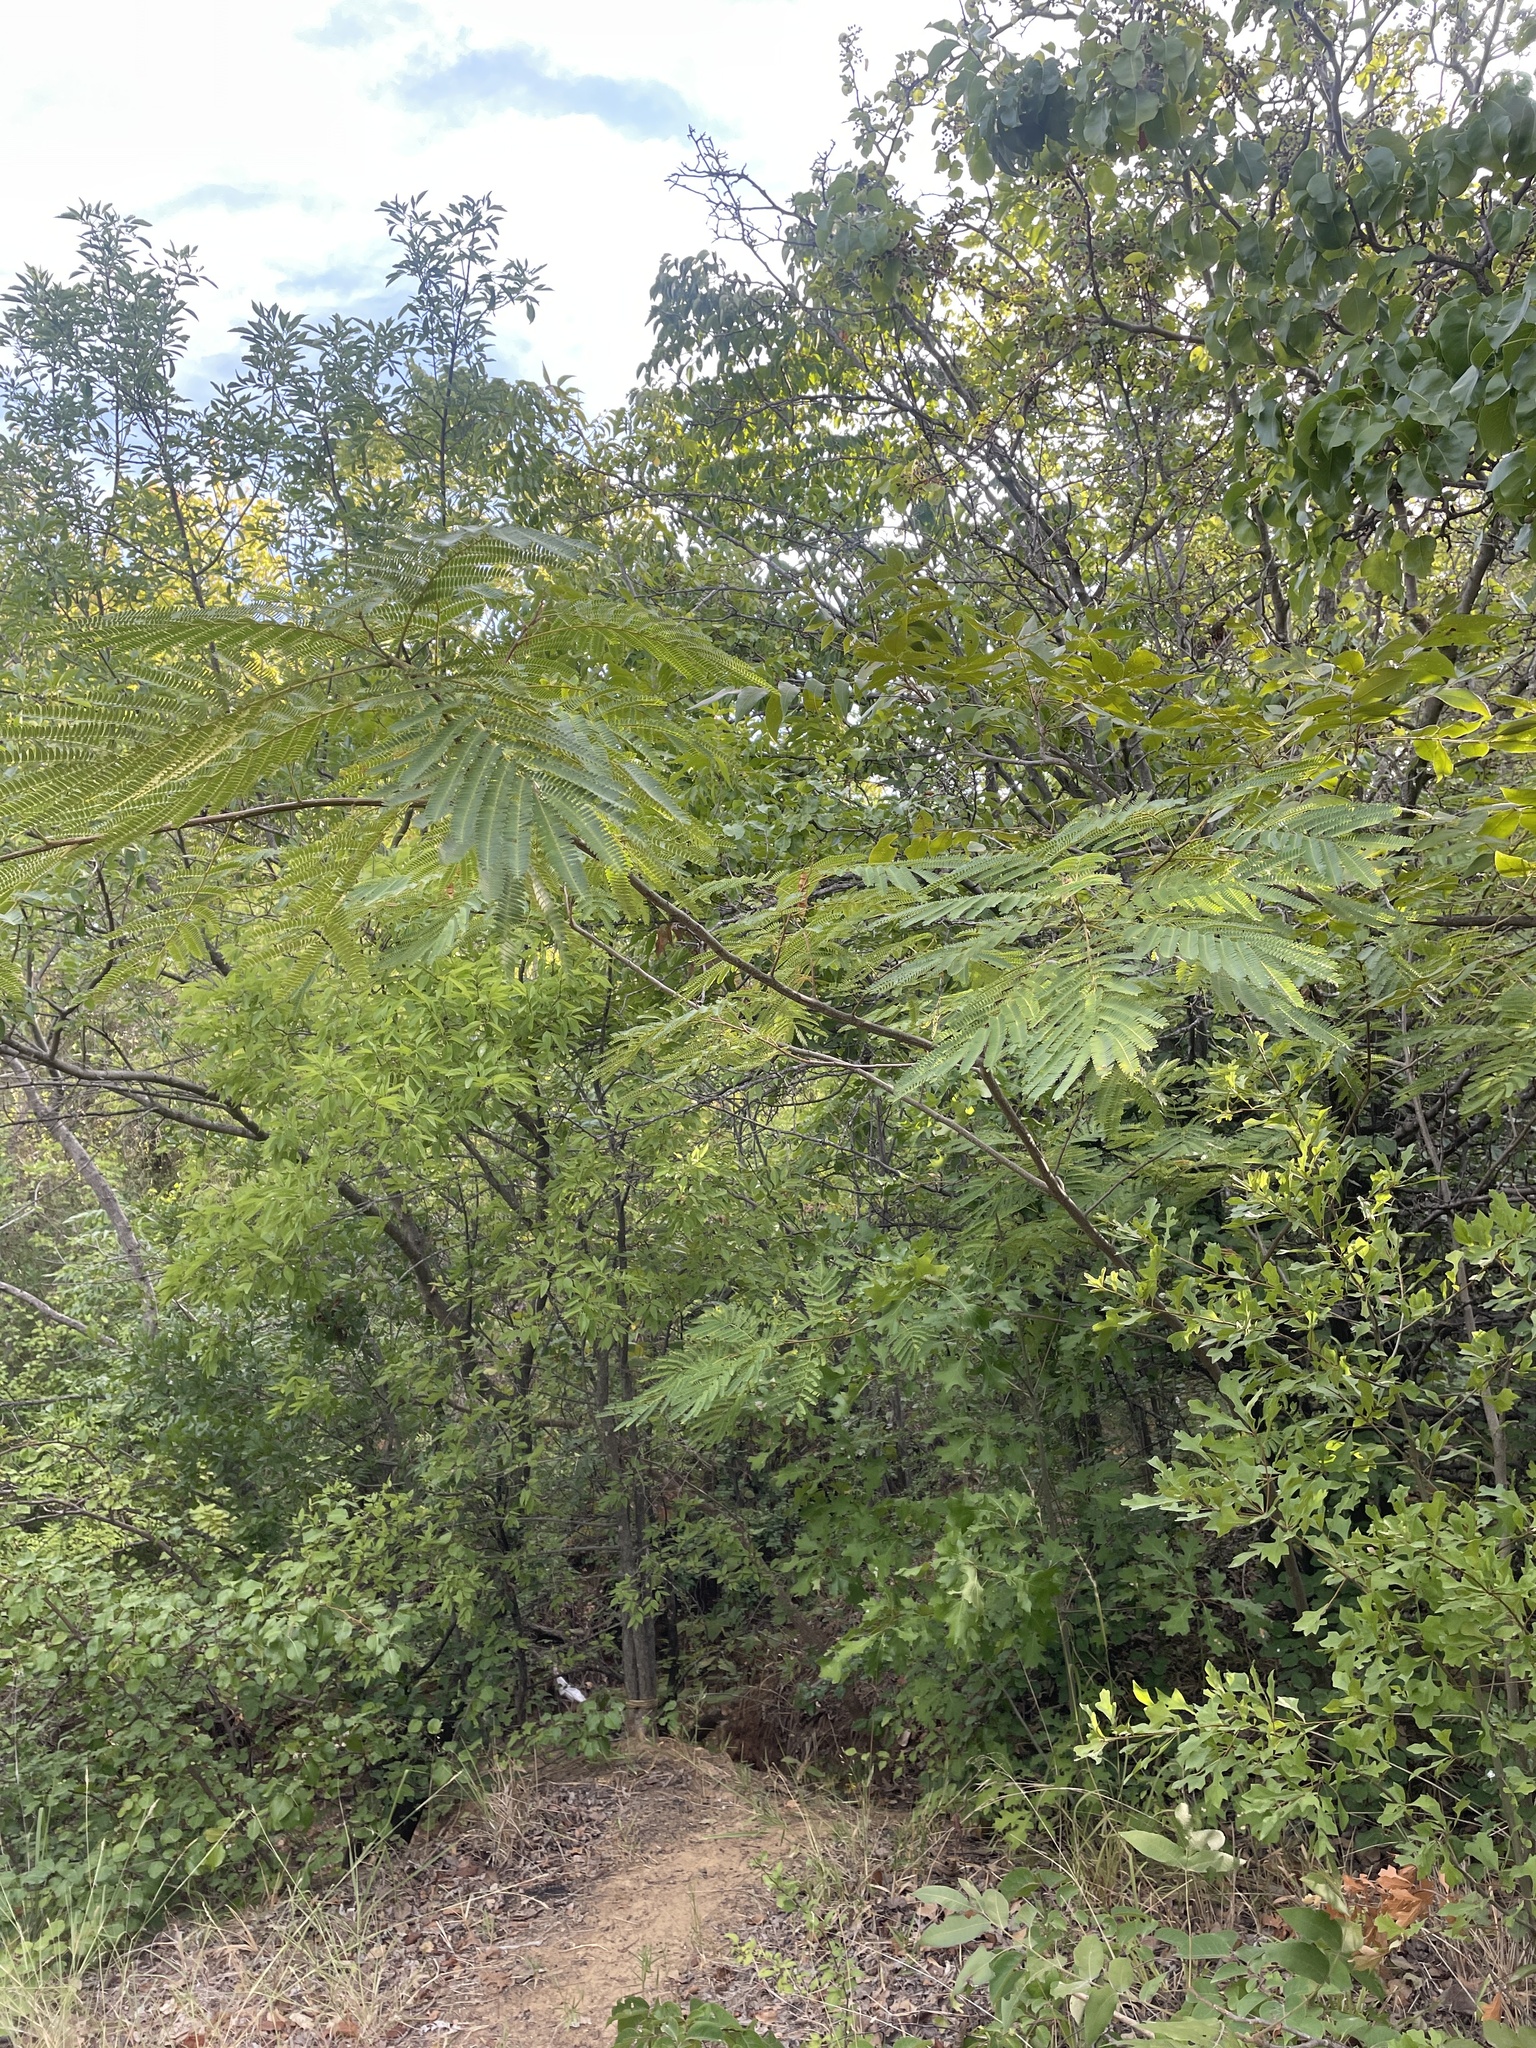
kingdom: Plantae
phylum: Tracheophyta
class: Magnoliopsida
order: Fabales
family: Fabaceae
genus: Albizia
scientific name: Albizia julibrissin
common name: Silktree
